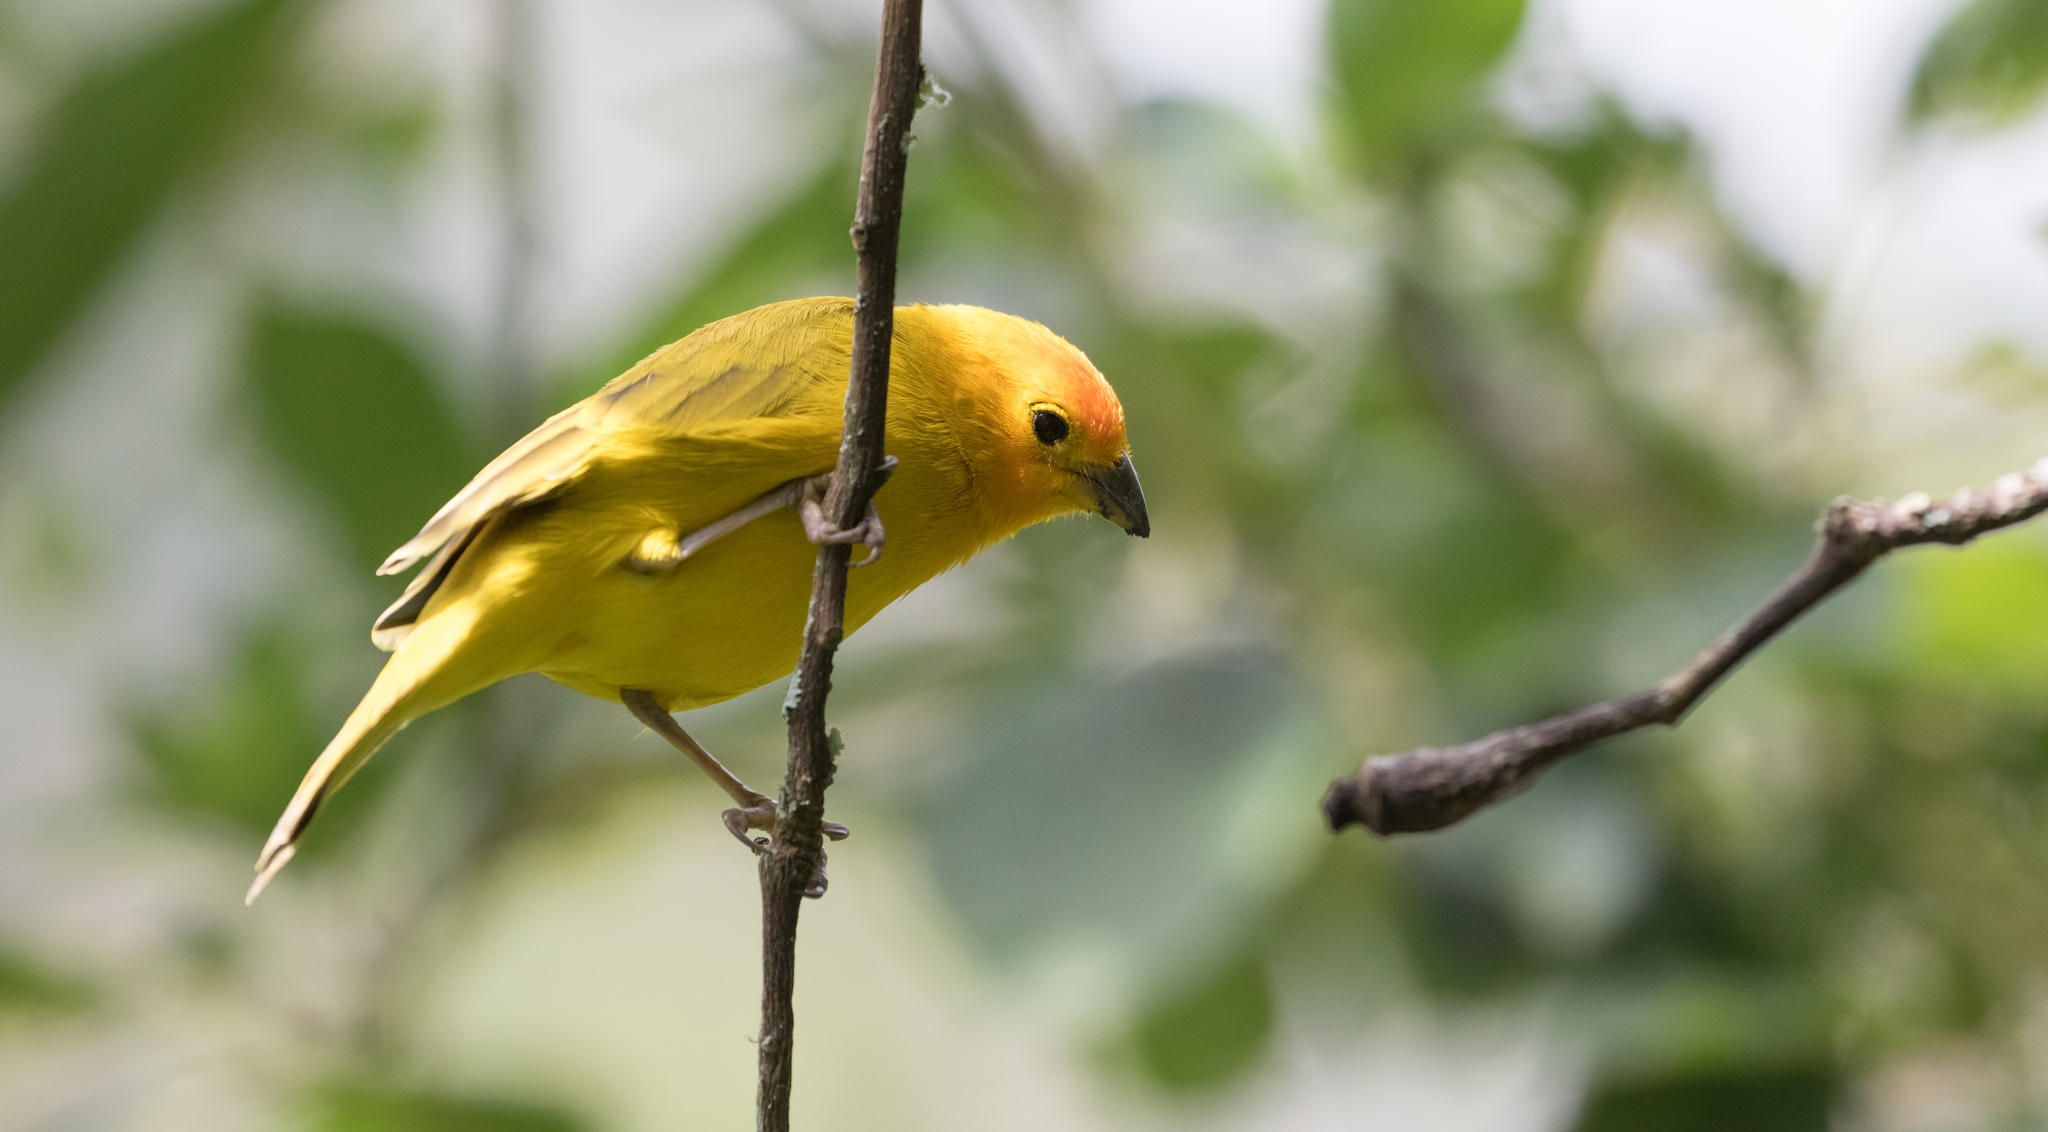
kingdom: Animalia
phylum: Chordata
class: Aves
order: Passeriformes
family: Thraupidae
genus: Sicalis
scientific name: Sicalis flaveola
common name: Saffron finch
